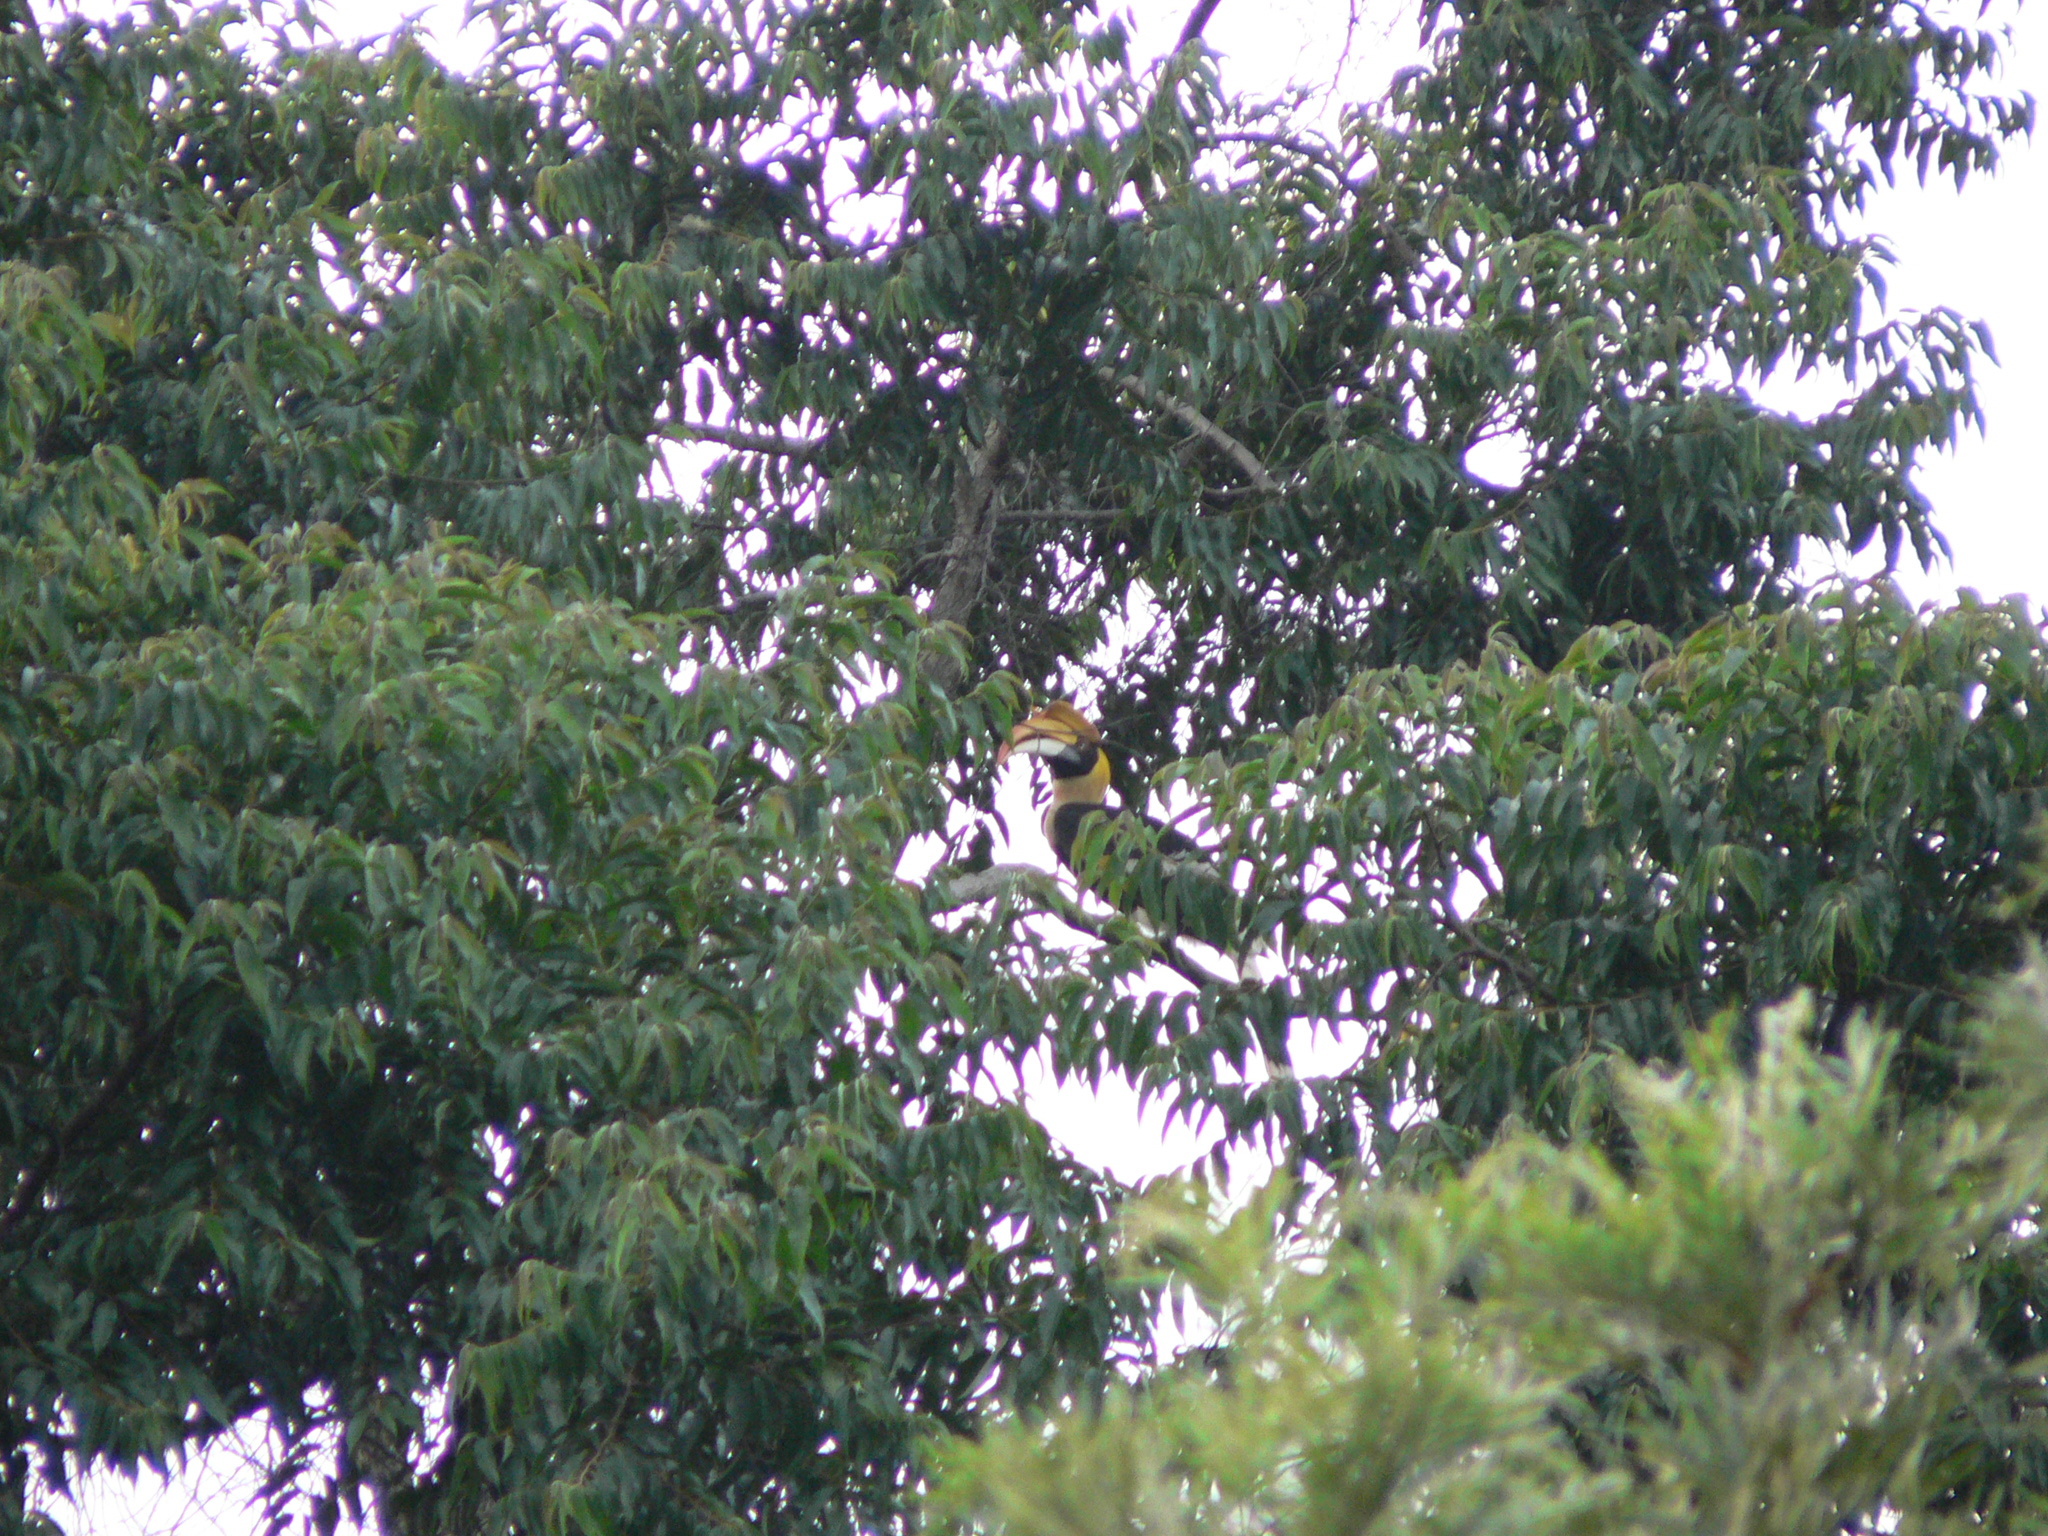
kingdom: Animalia
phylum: Chordata
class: Aves
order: Bucerotiformes
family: Bucerotidae
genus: Buceros
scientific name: Buceros bicornis
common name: Great hornbill
